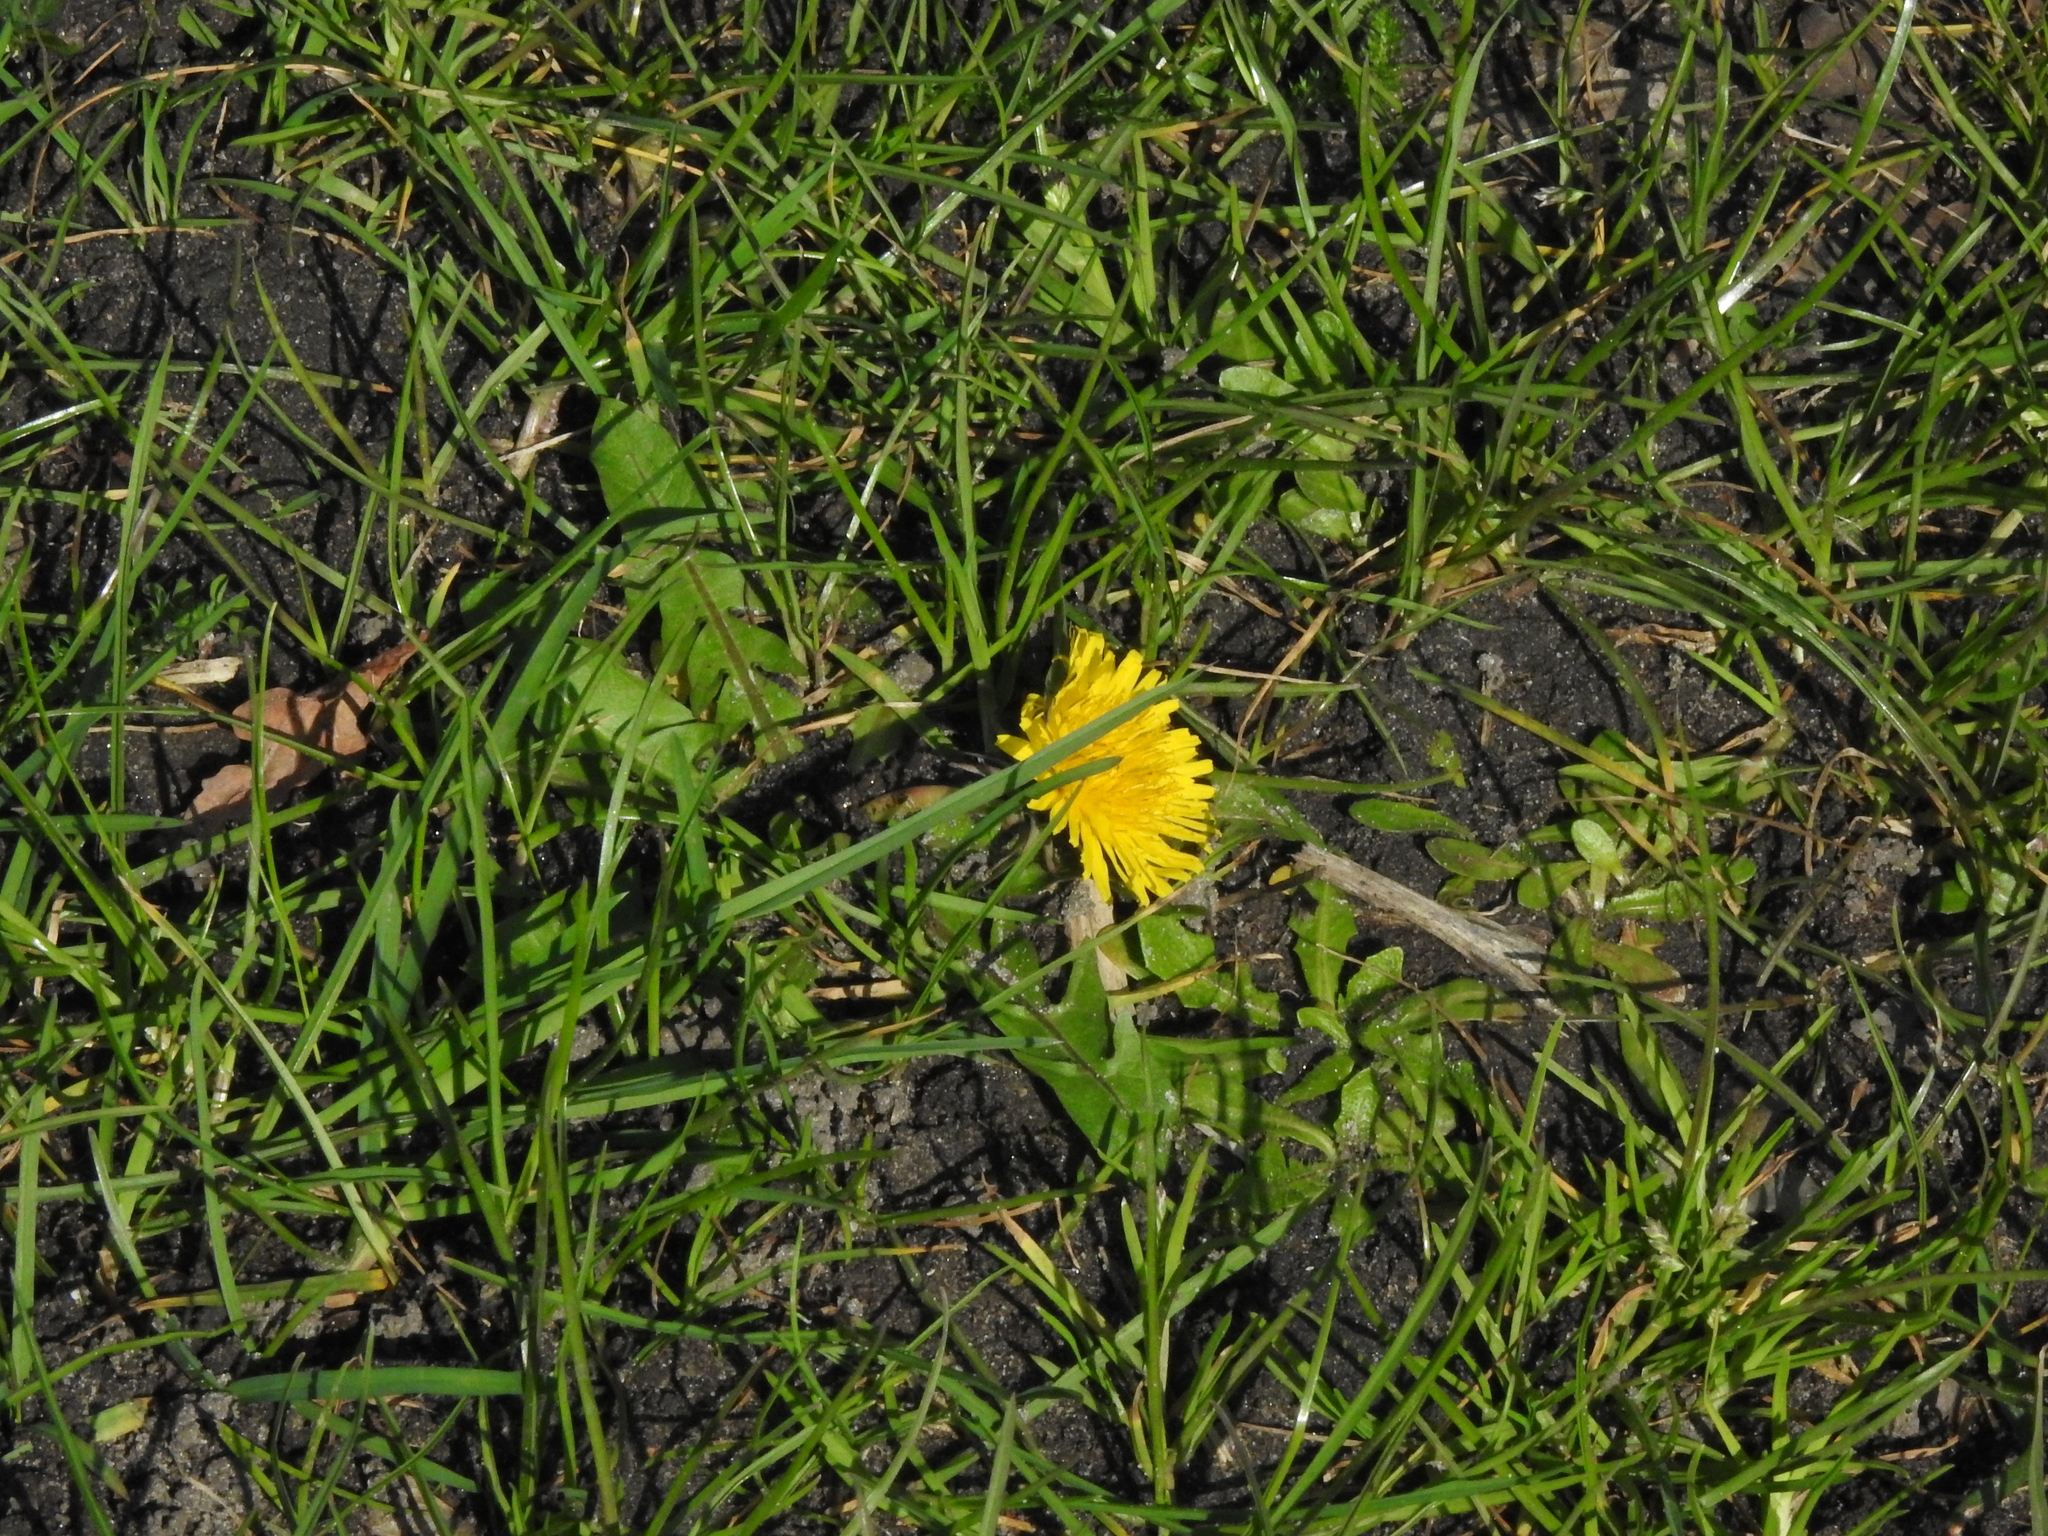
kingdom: Plantae
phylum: Tracheophyta
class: Magnoliopsida
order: Asterales
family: Asteraceae
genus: Taraxacum
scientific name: Taraxacum officinale
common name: Common dandelion
